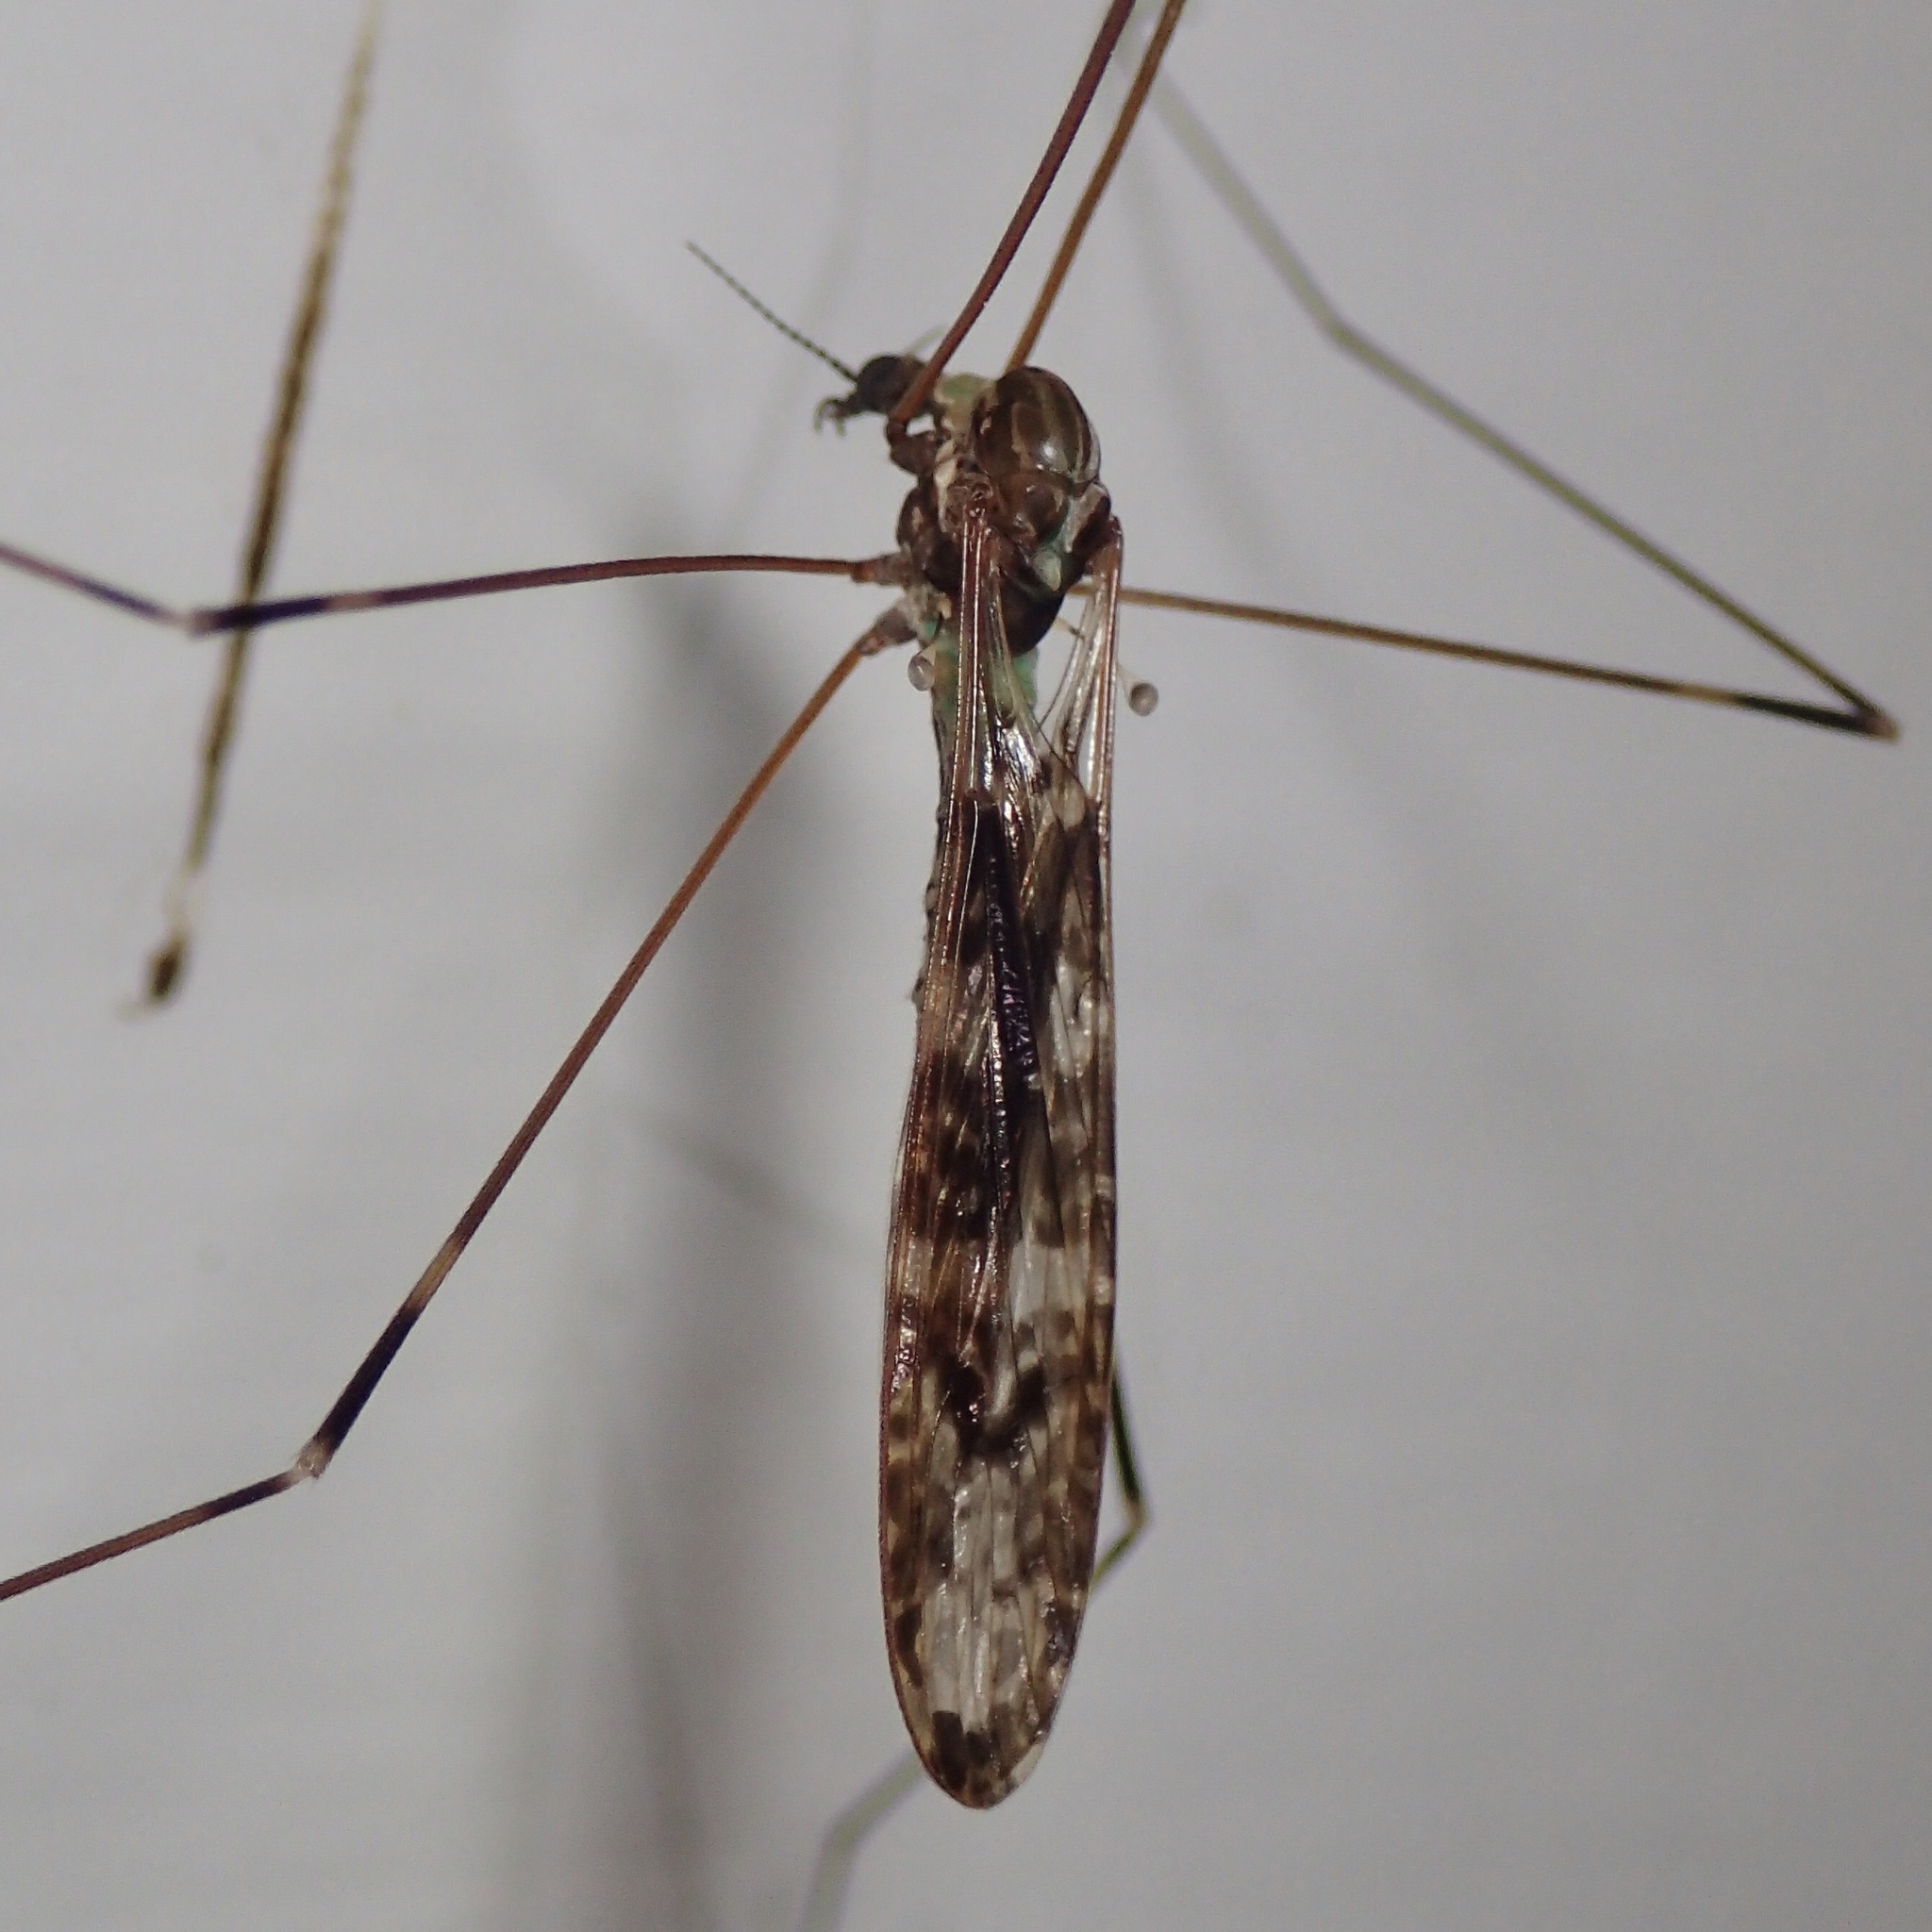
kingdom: Animalia
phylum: Arthropoda
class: Insecta
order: Diptera
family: Limoniidae
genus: Discobola
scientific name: Discobola dohrni
